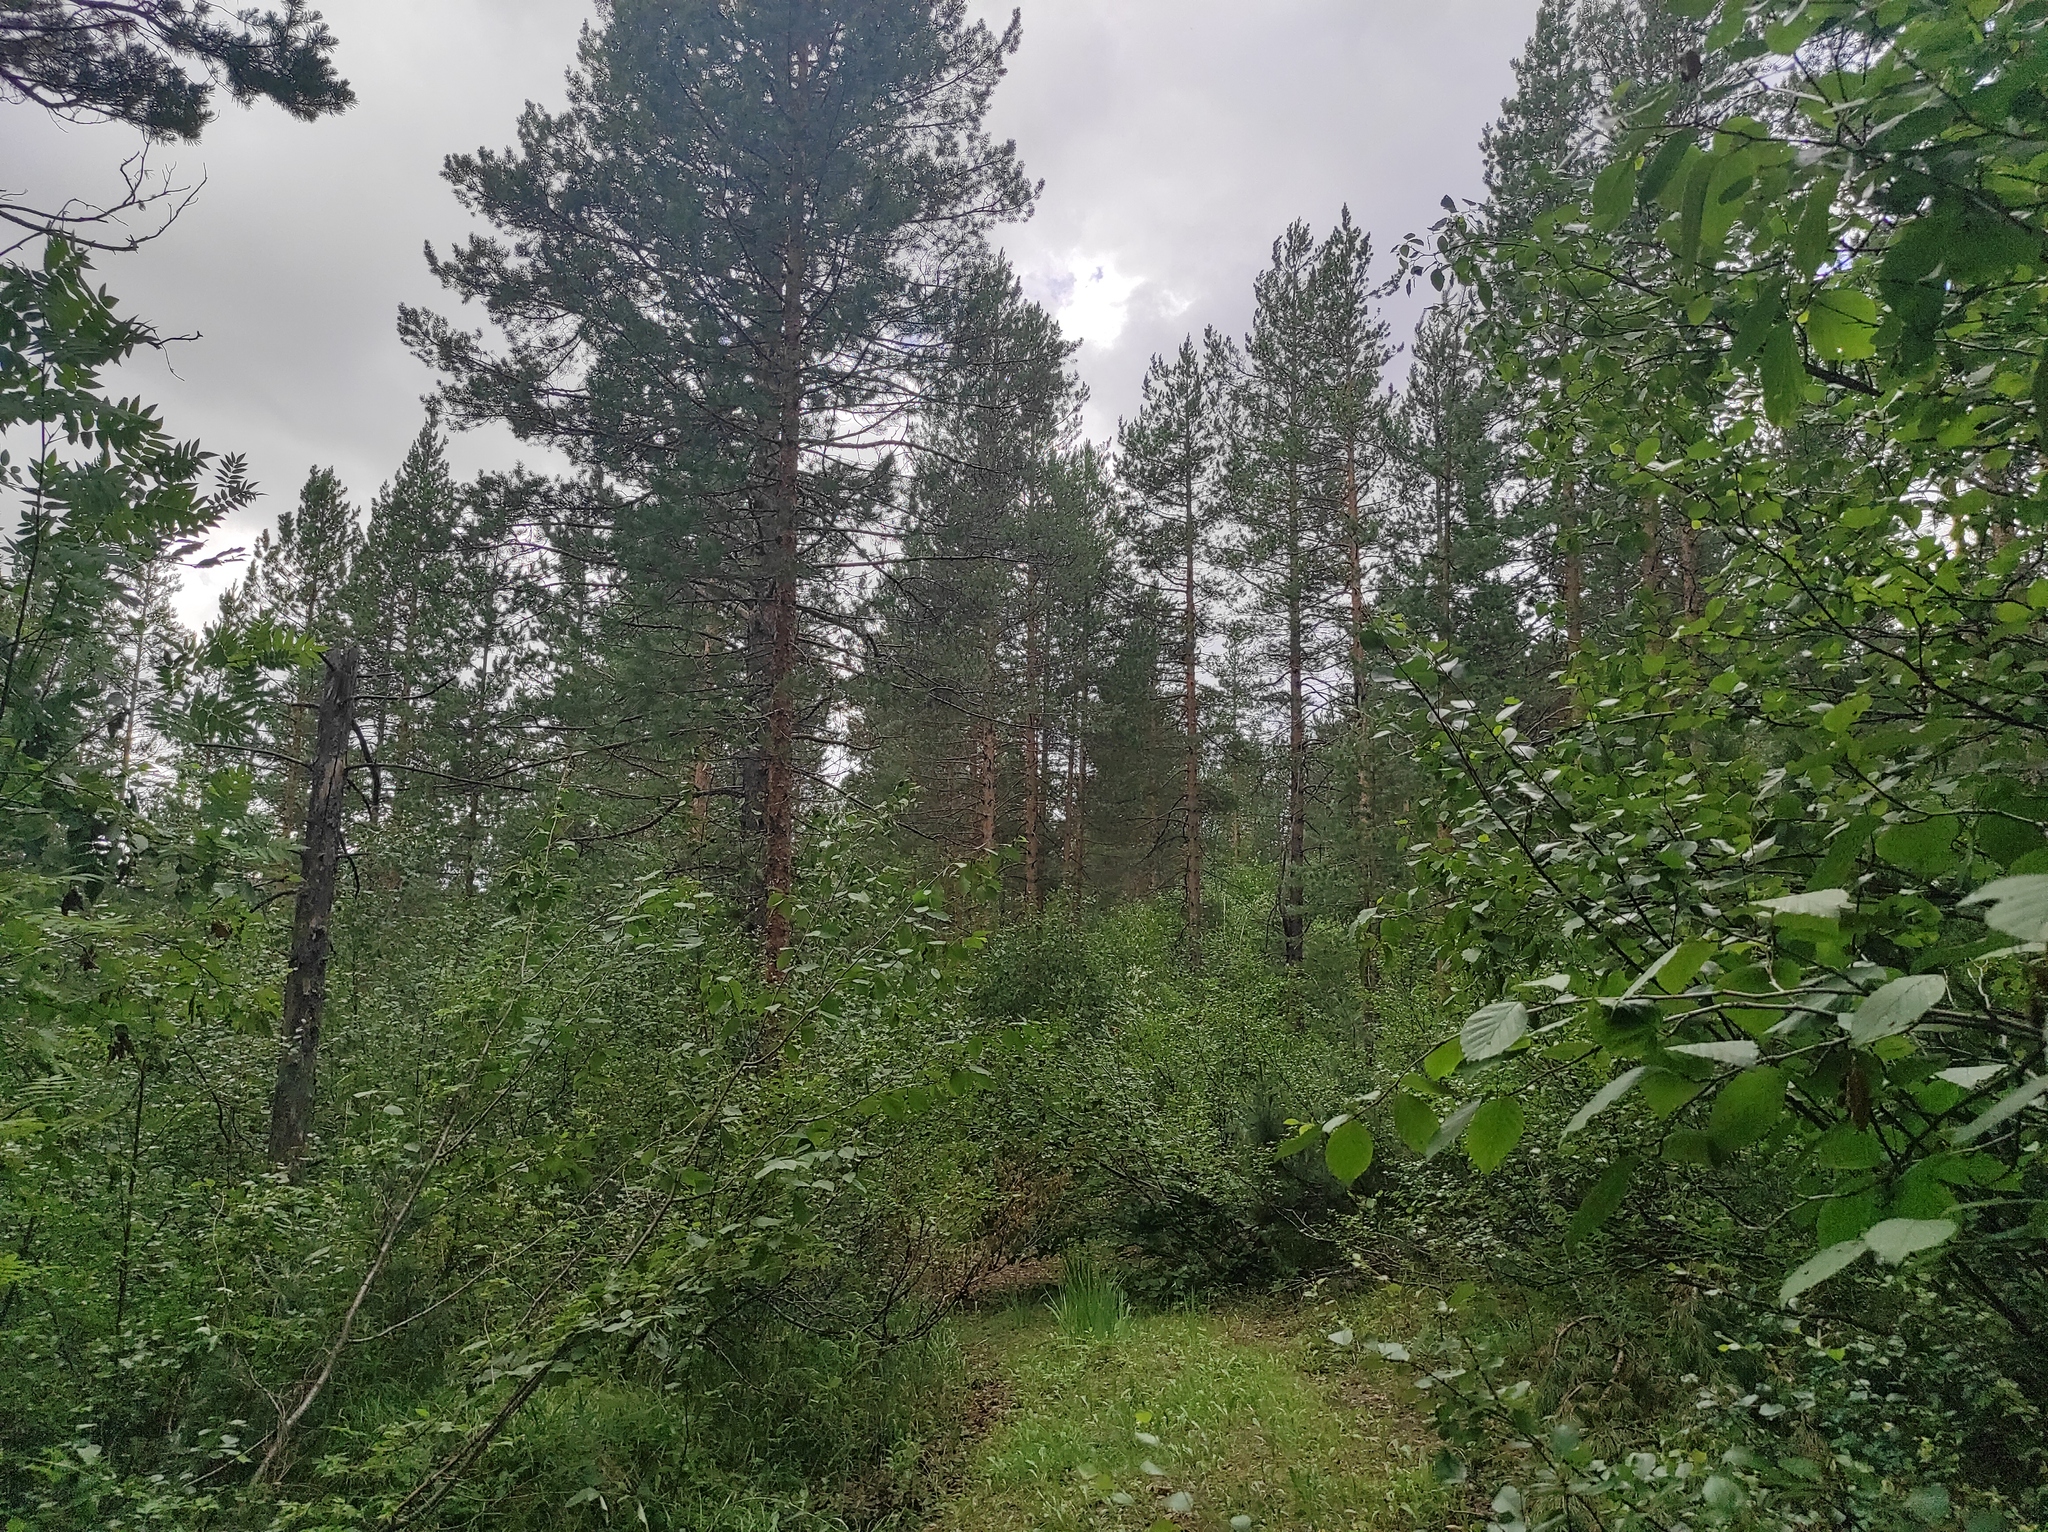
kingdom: Plantae
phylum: Tracheophyta
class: Magnoliopsida
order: Fagales
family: Betulaceae
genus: Alnus
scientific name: Alnus alnobetula
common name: Green alder
